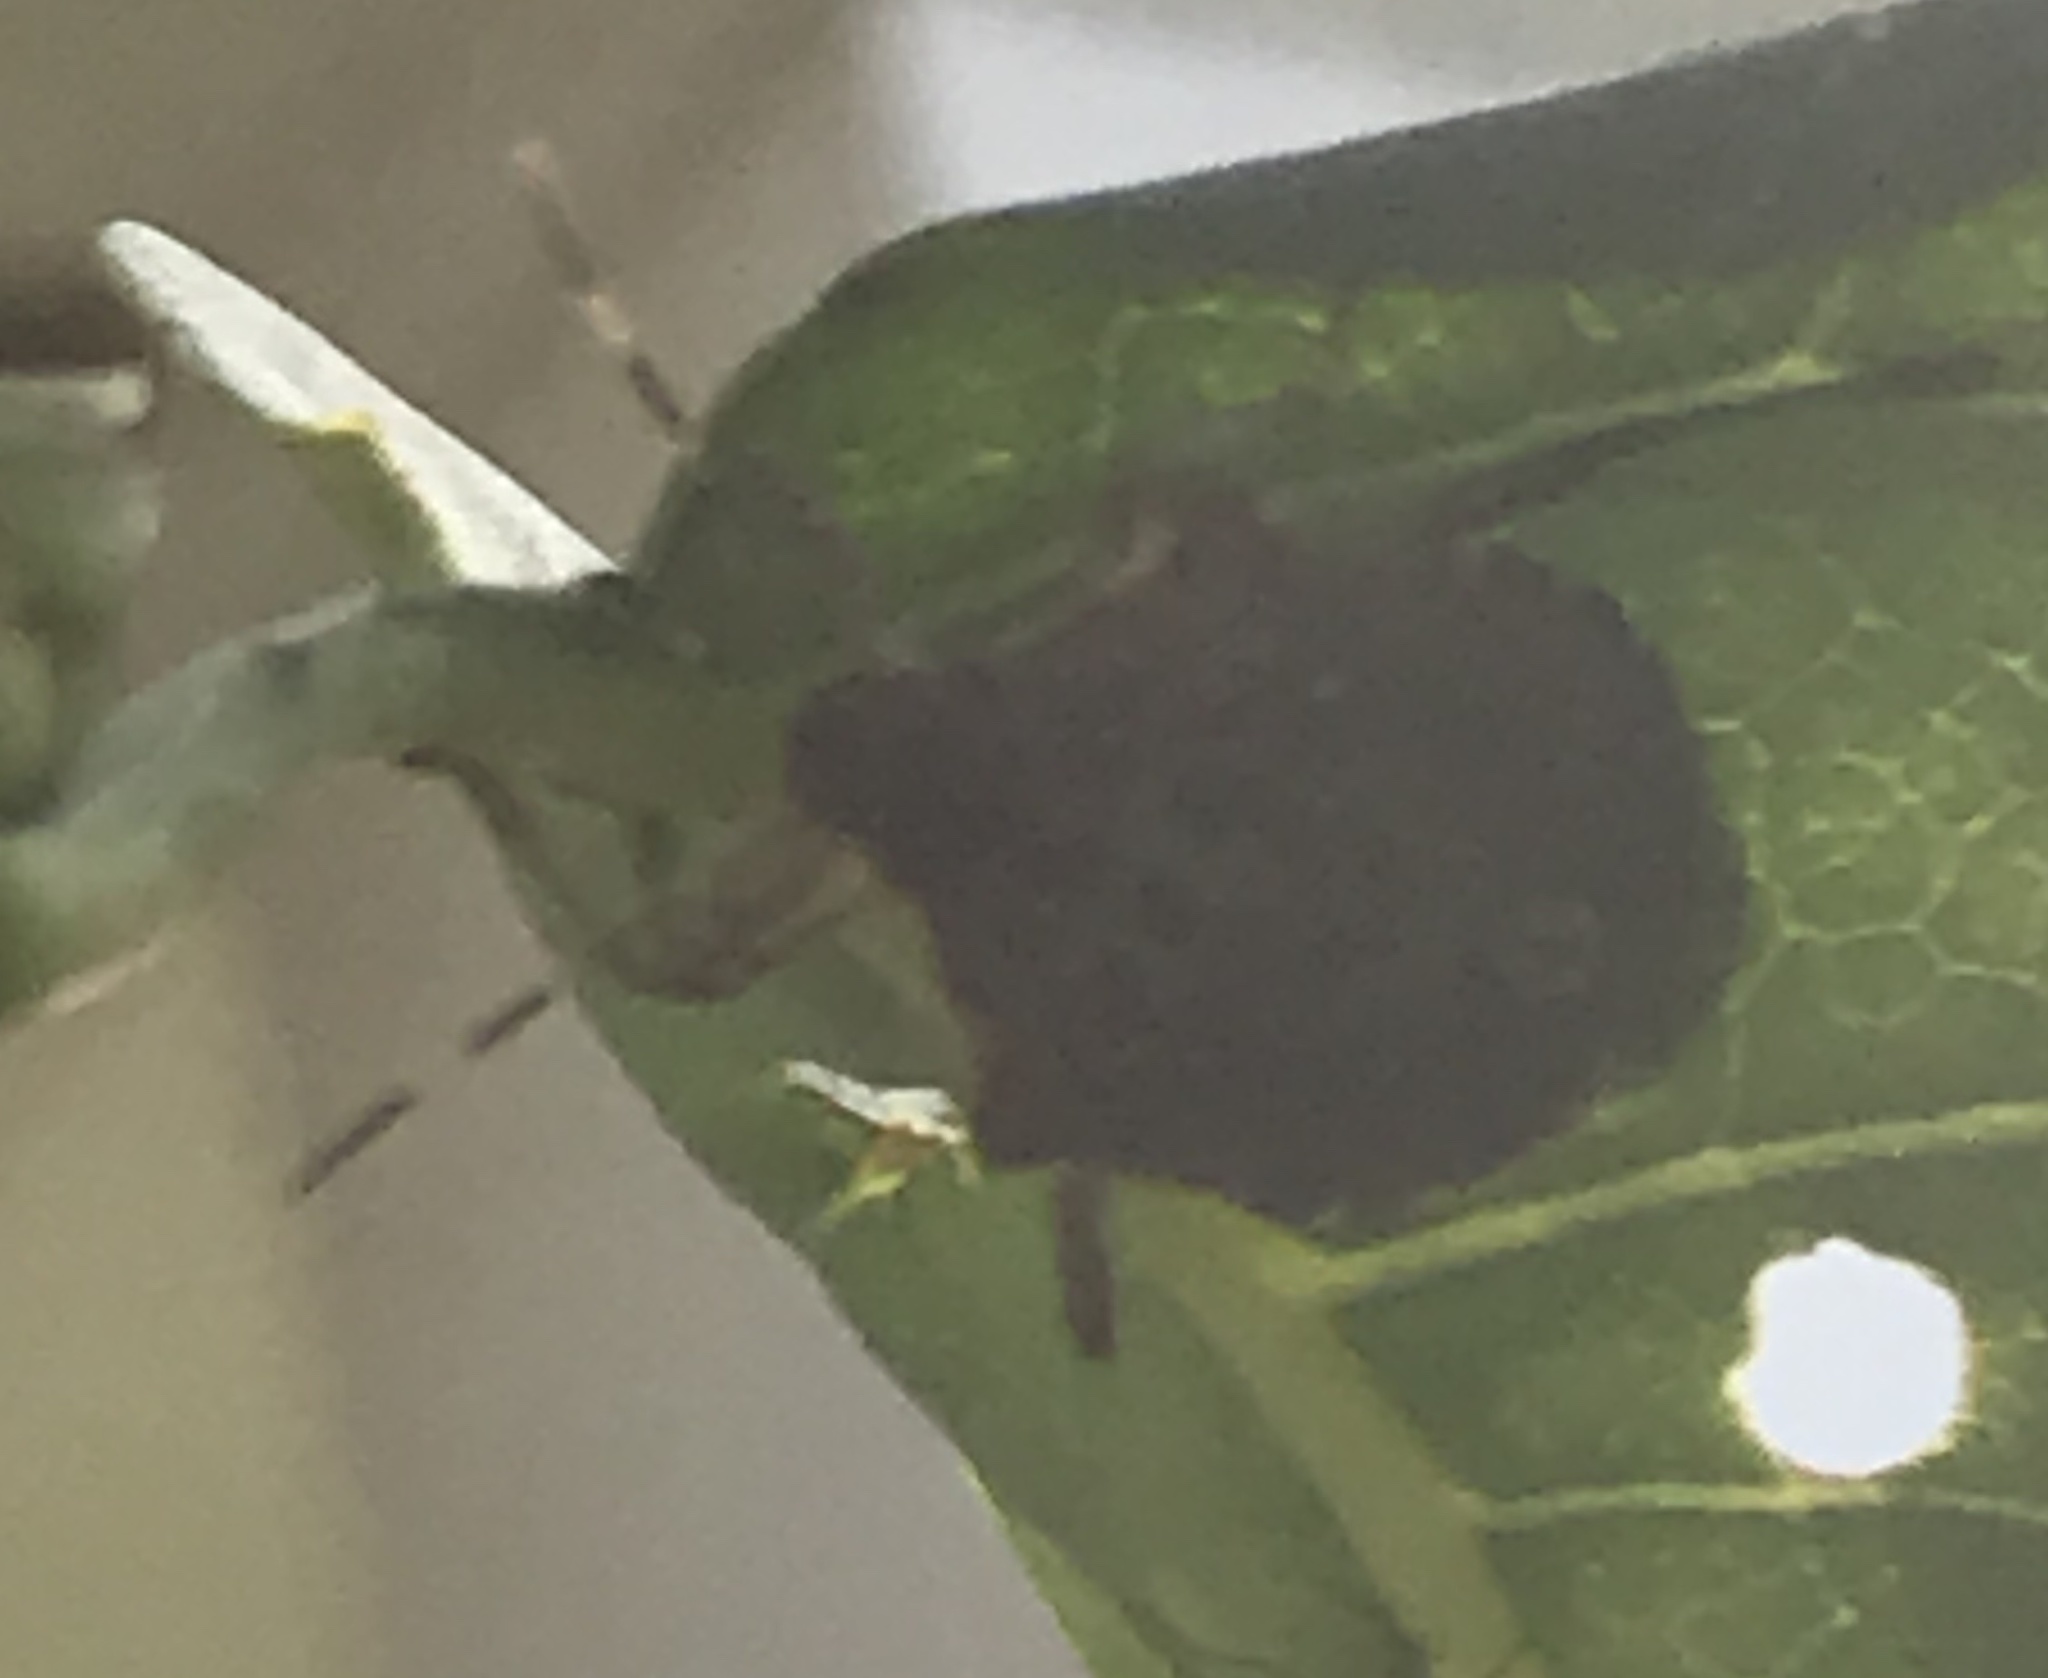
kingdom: Animalia
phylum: Arthropoda
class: Insecta
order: Hemiptera
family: Pentatomidae
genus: Halyomorpha
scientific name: Halyomorpha halys
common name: Brown marmorated stink bug
